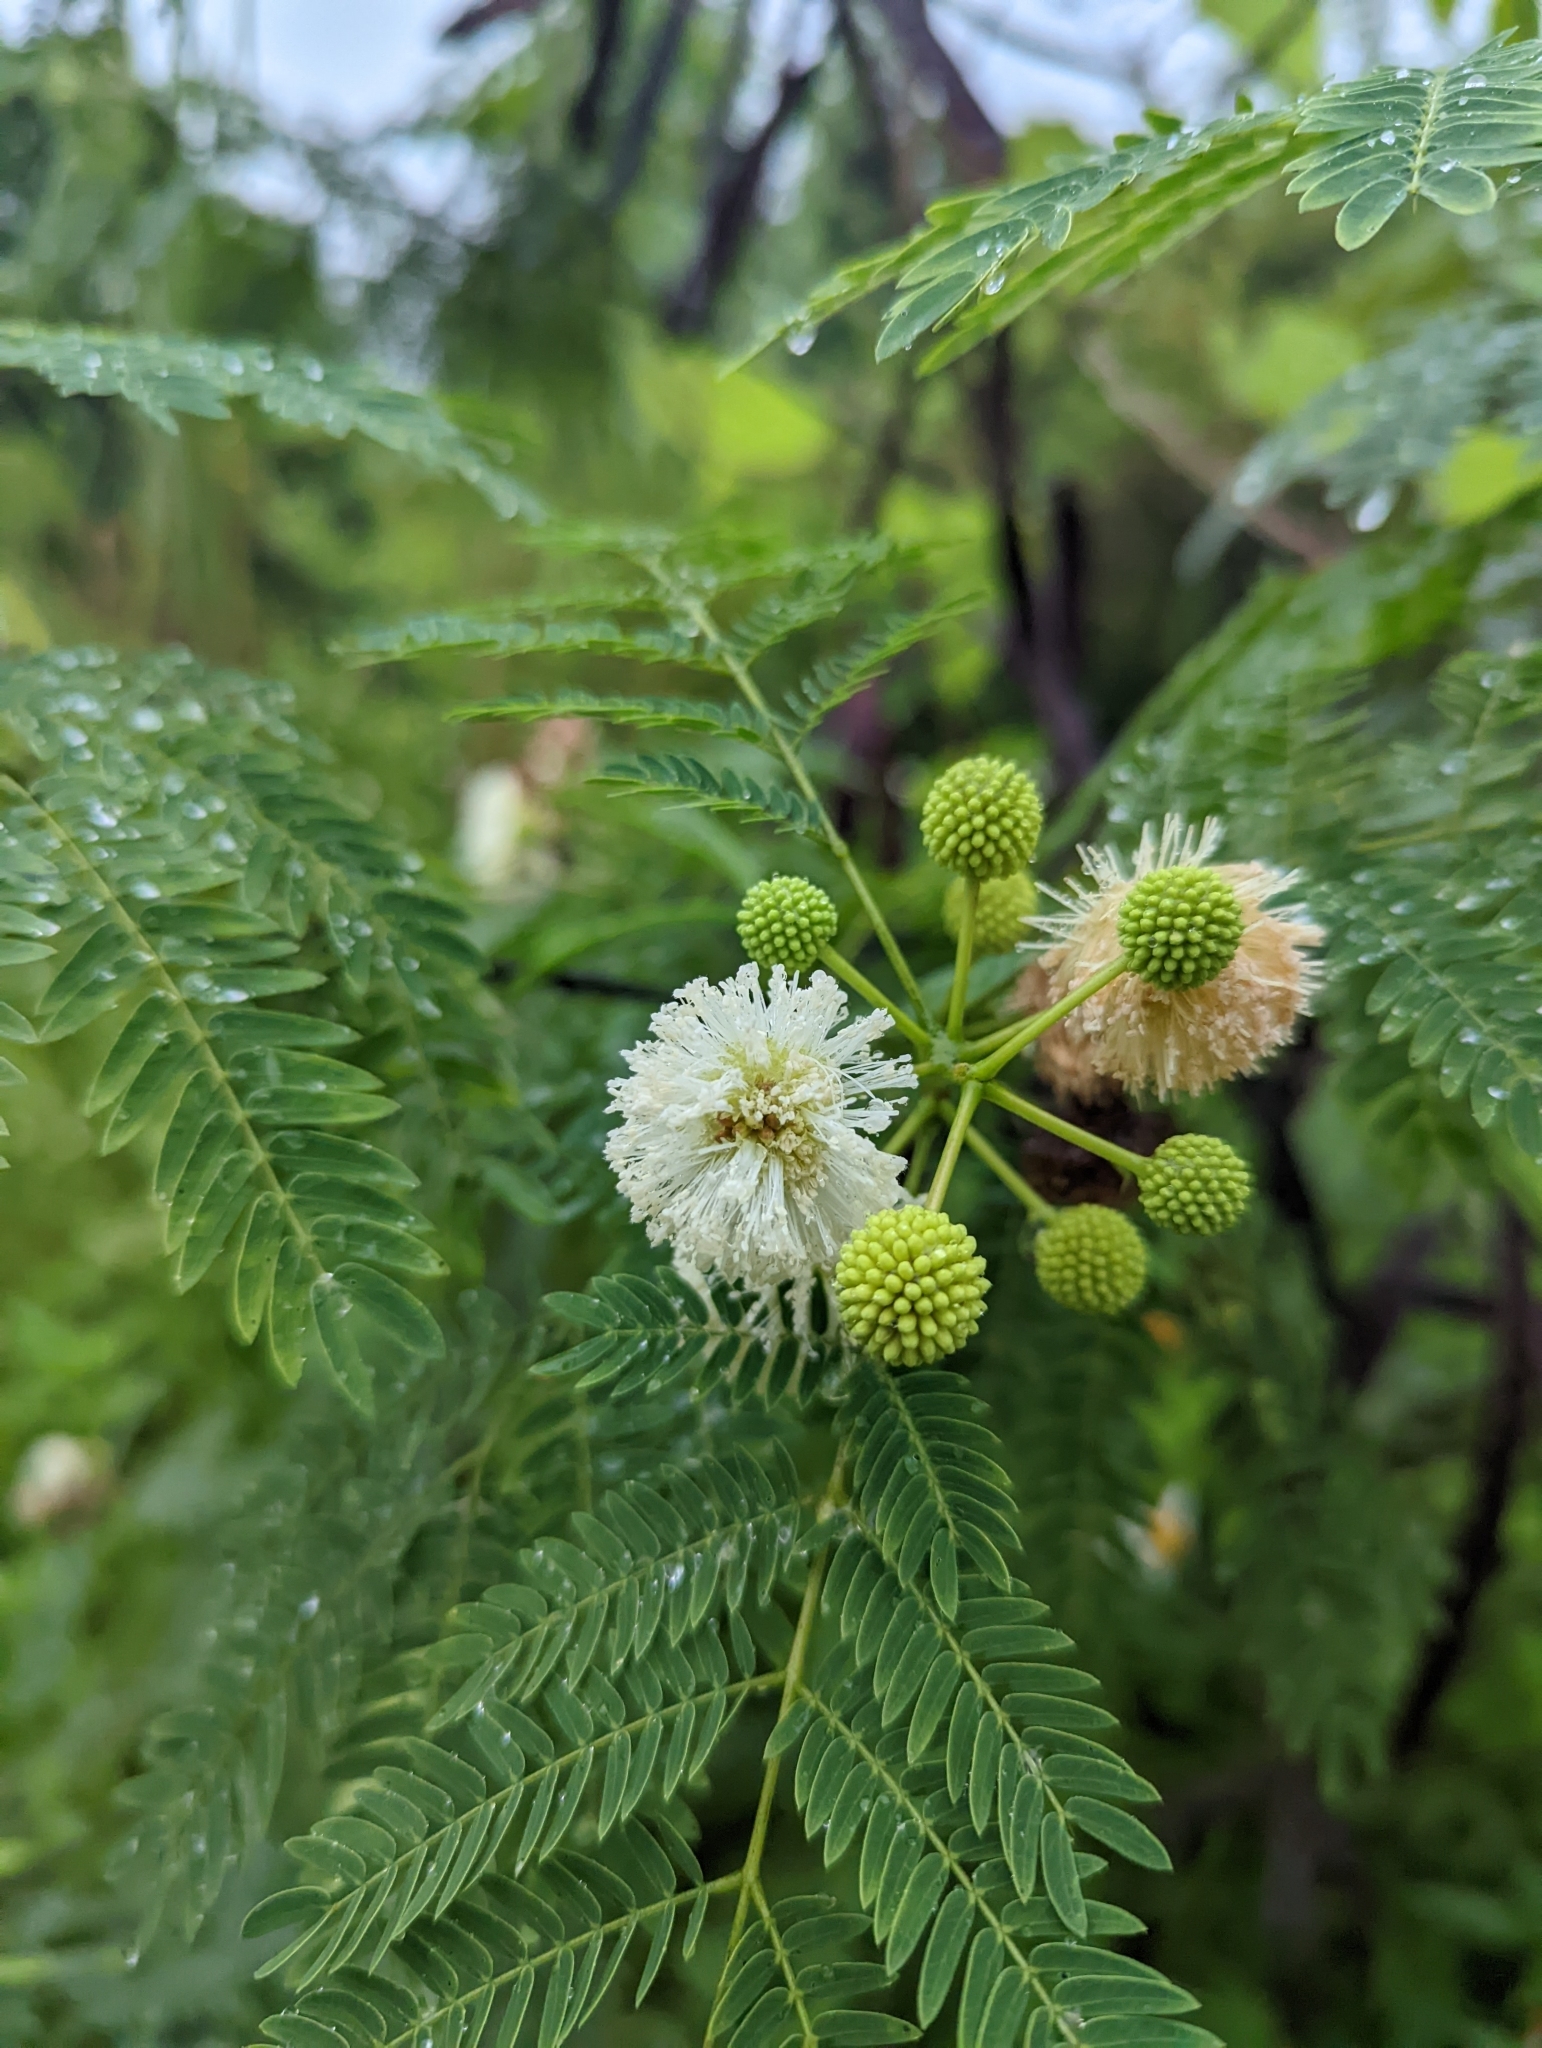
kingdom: Plantae
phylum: Tracheophyta
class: Magnoliopsida
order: Fabales
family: Fabaceae
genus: Leucaena
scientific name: Leucaena leucocephala
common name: White leadtree
